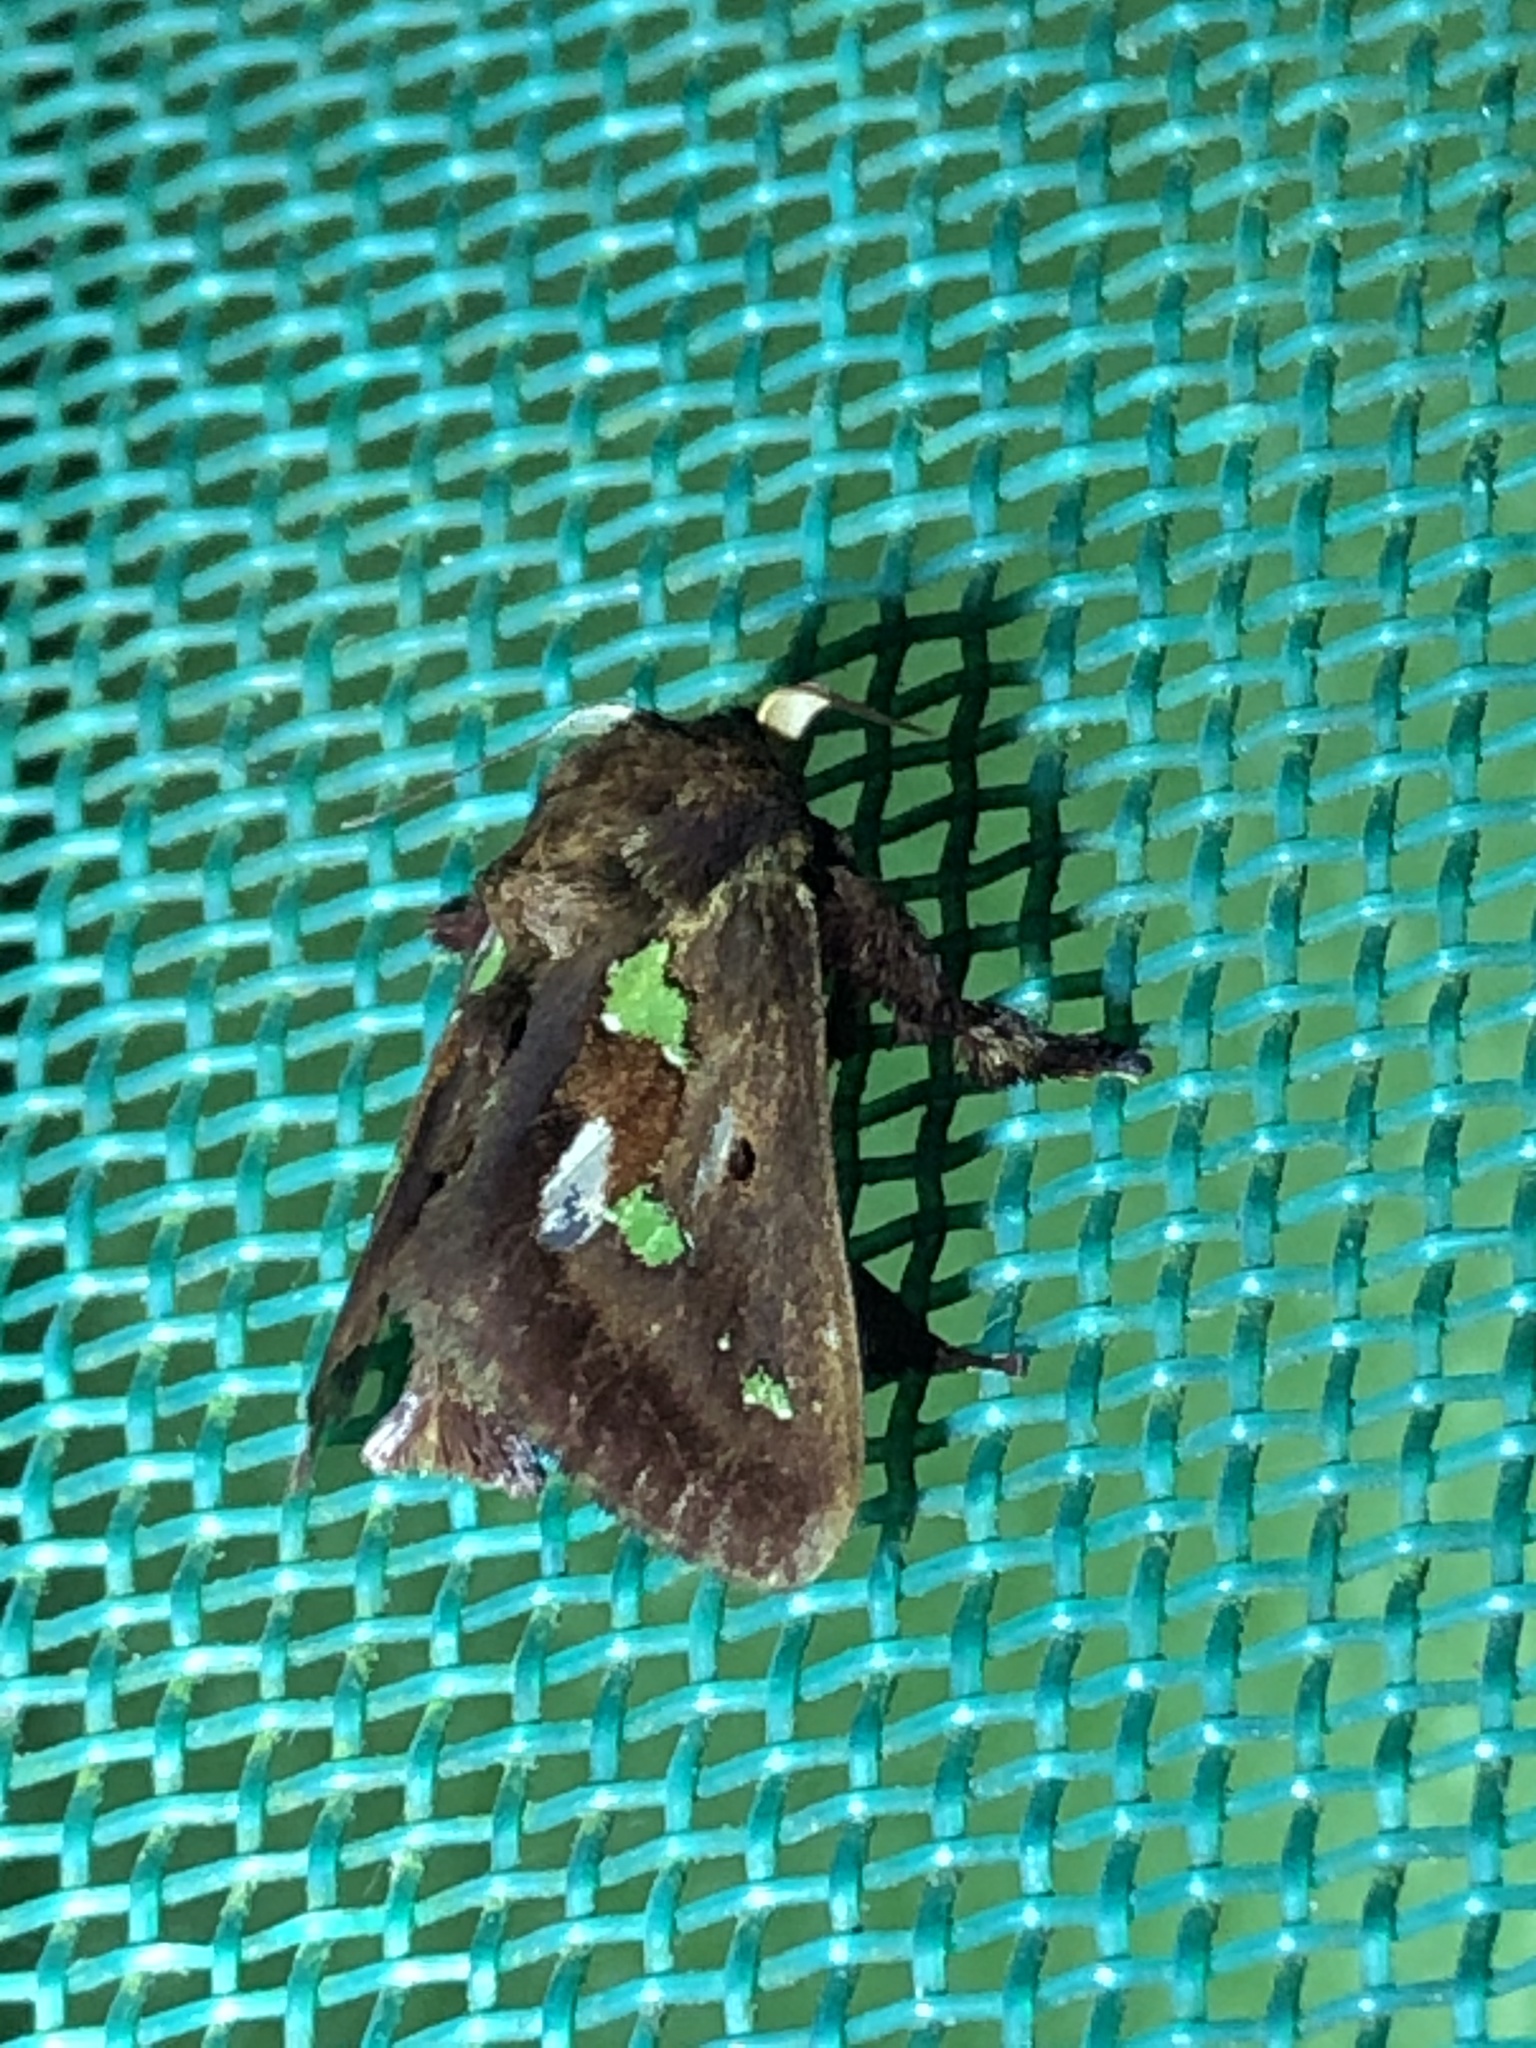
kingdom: Animalia
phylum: Arthropoda
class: Insecta
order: Lepidoptera
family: Limacodidae
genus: Euclea
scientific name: Euclea cipior
